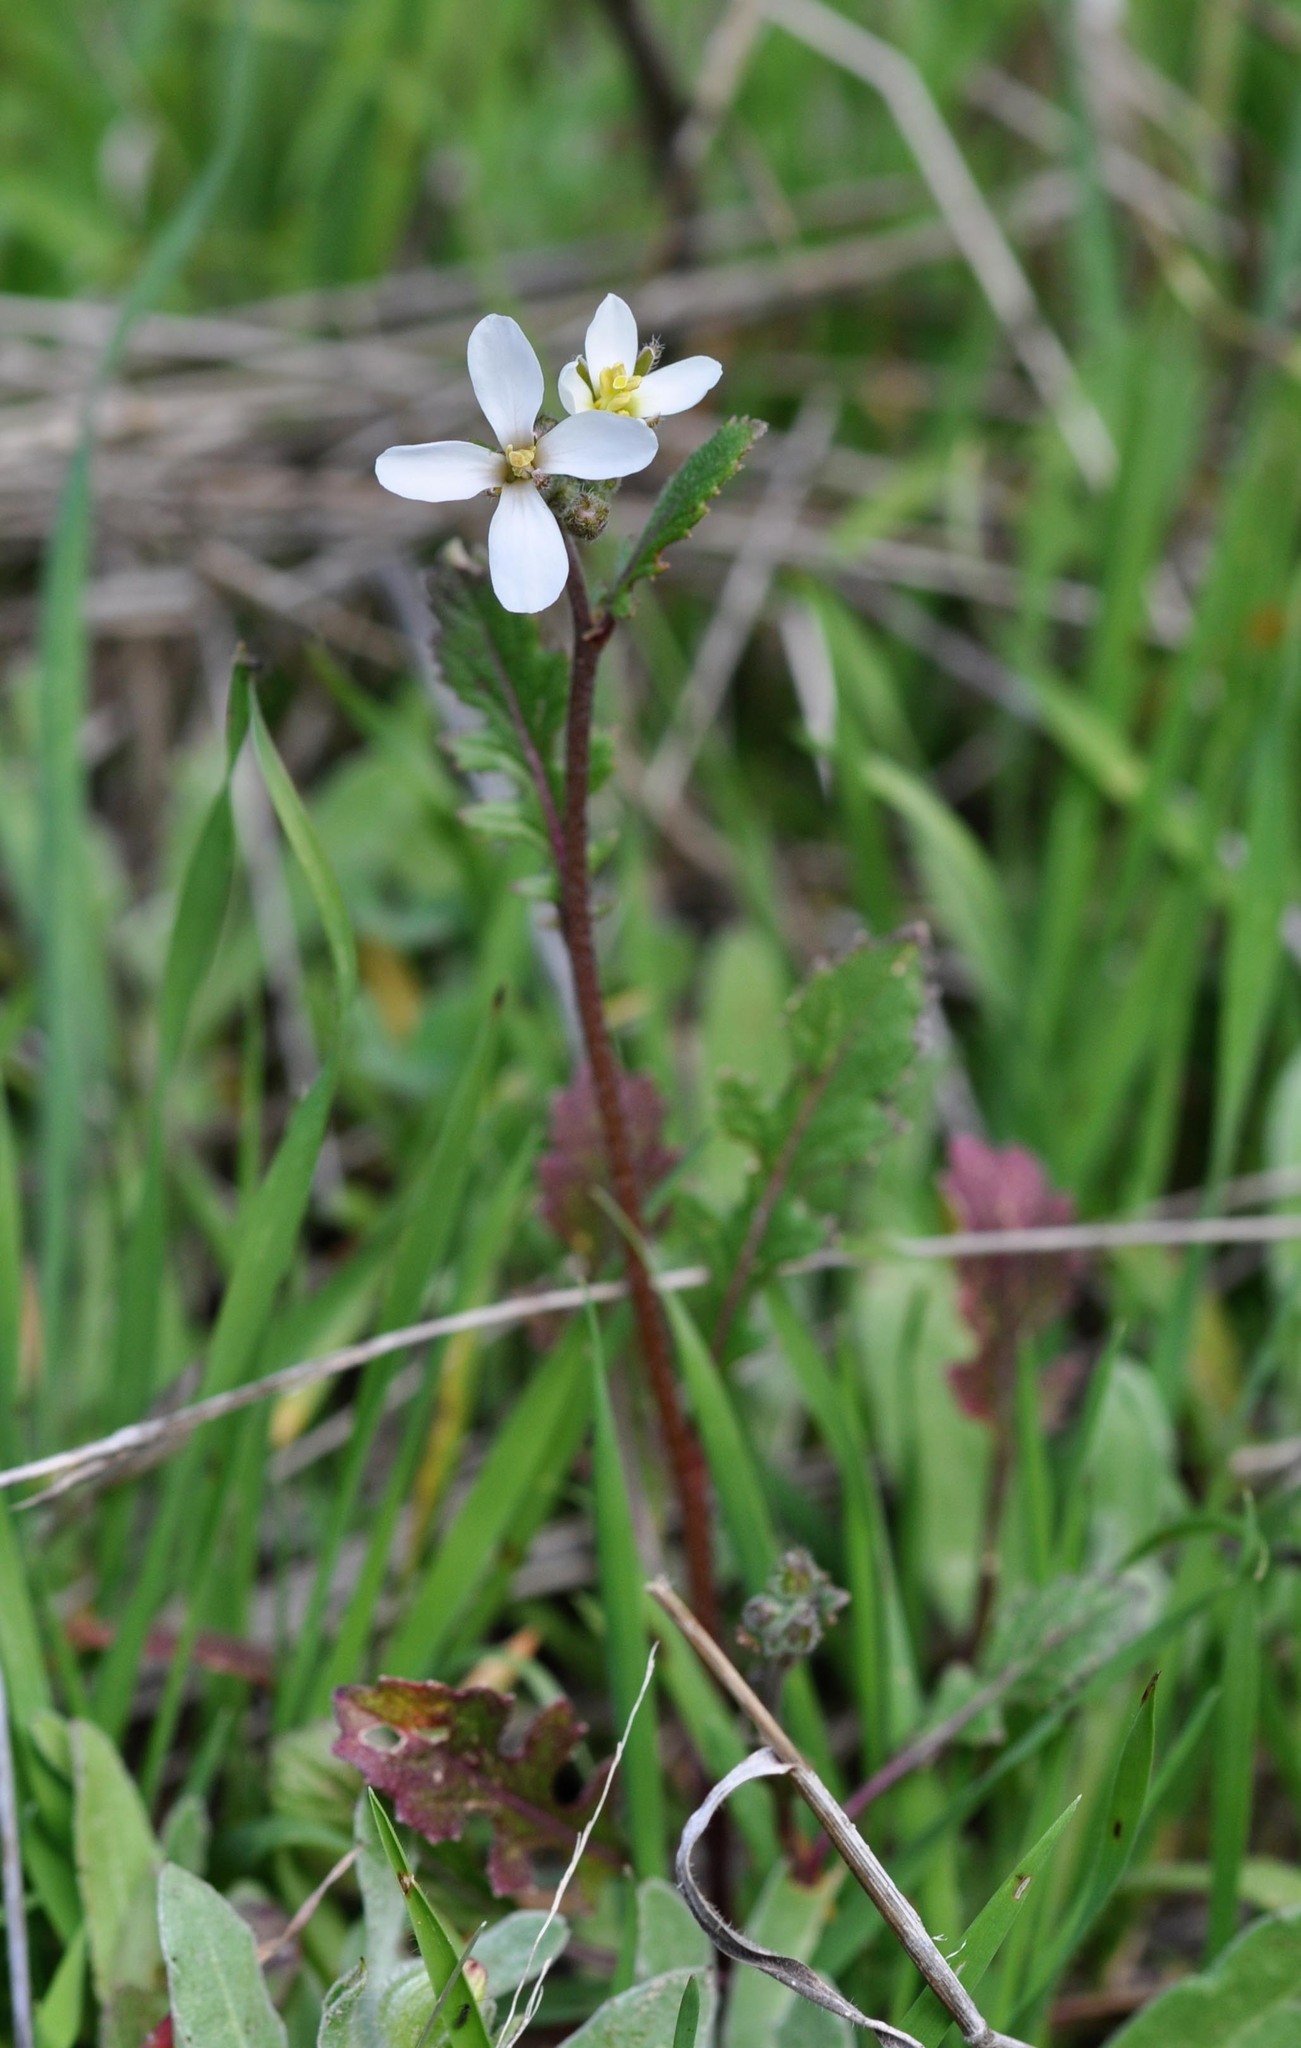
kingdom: Plantae
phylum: Tracheophyta
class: Magnoliopsida
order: Brassicales
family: Brassicaceae
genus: Diplotaxis
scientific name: Diplotaxis erucoides
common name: White rocket
